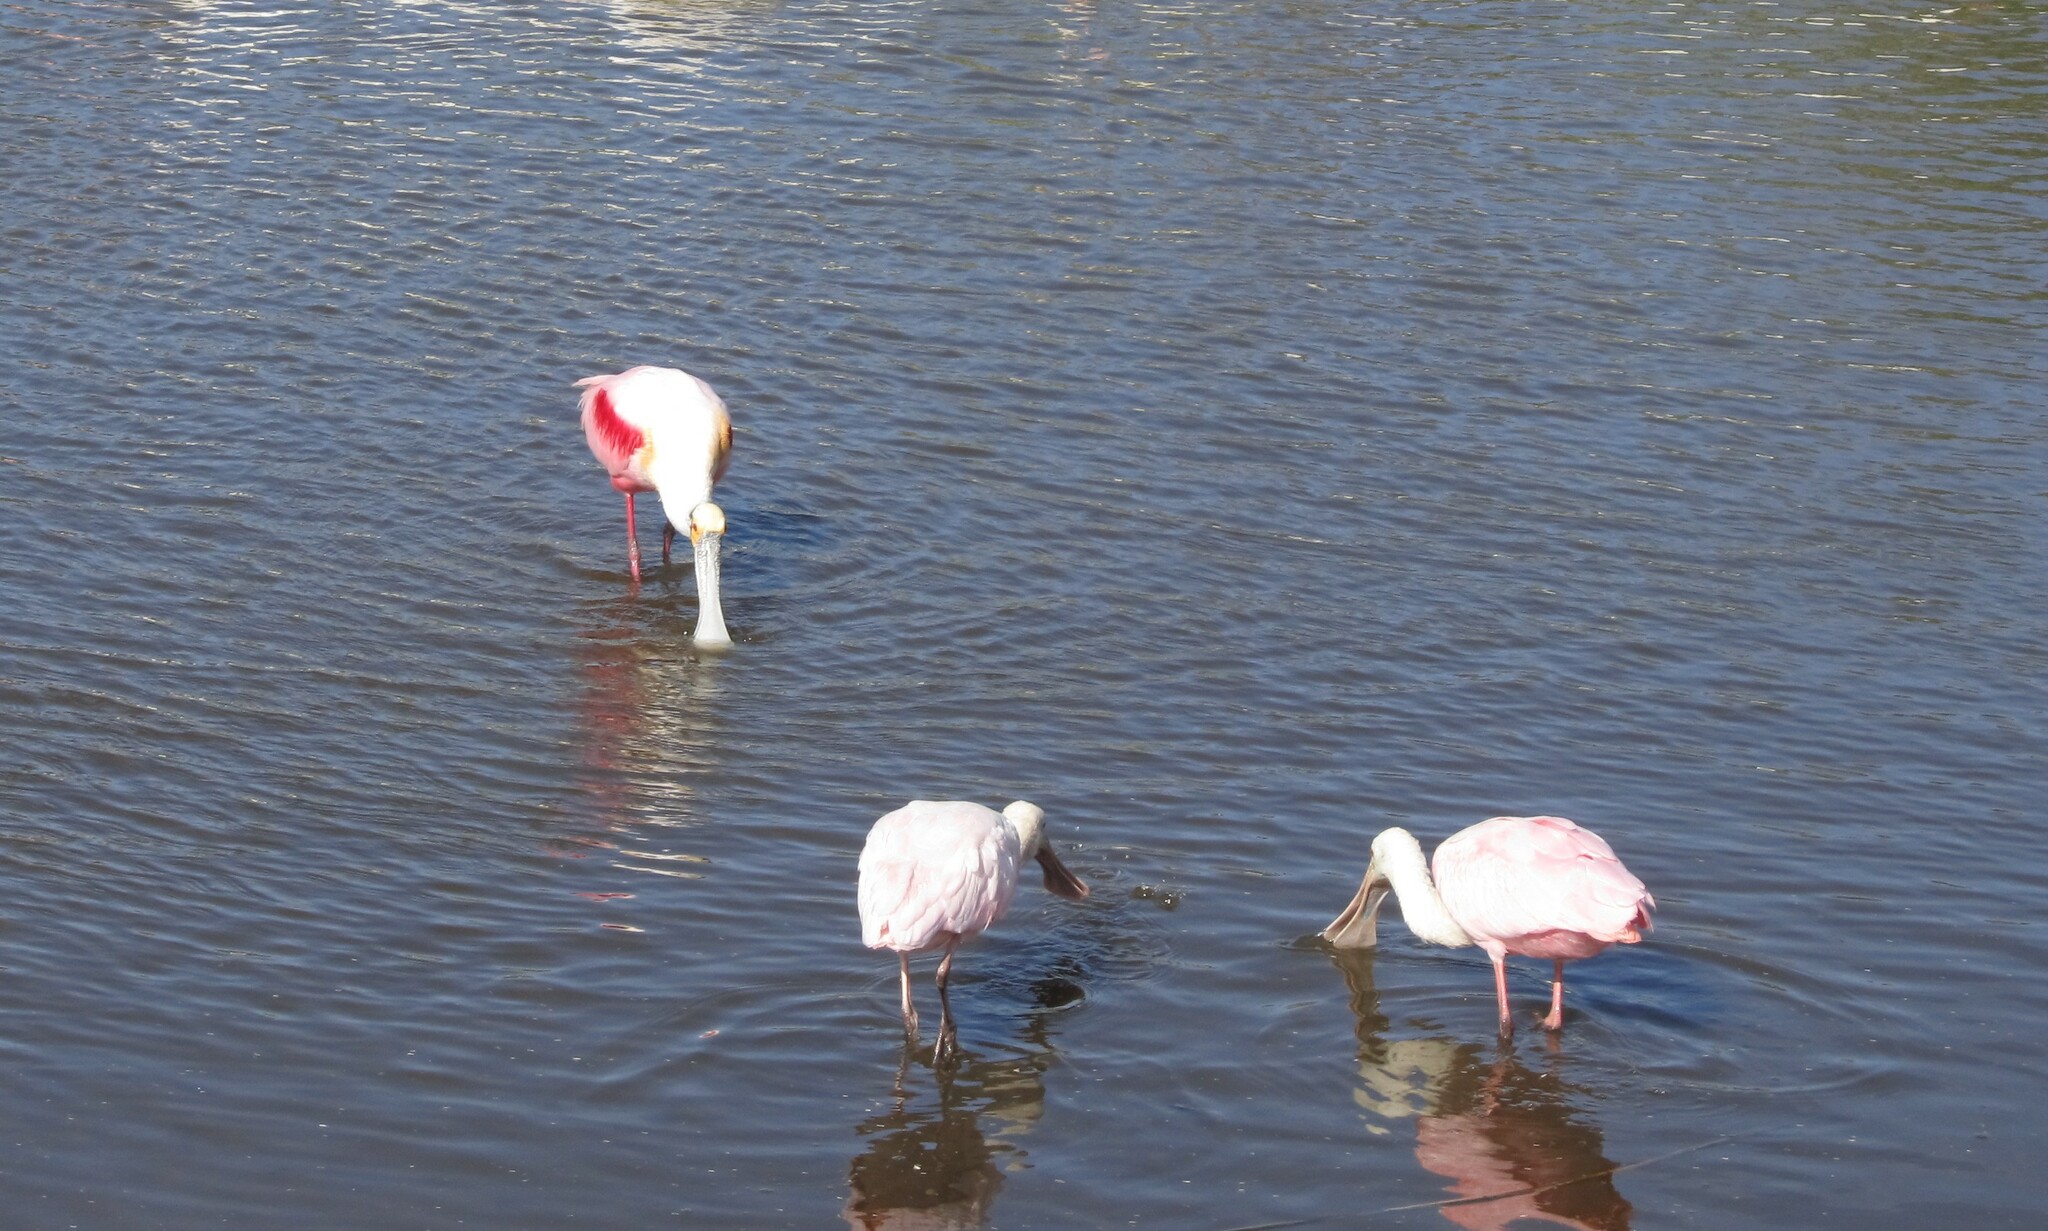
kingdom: Animalia
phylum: Chordata
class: Aves
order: Pelecaniformes
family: Threskiornithidae
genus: Platalea
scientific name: Platalea ajaja
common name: Roseate spoonbill
